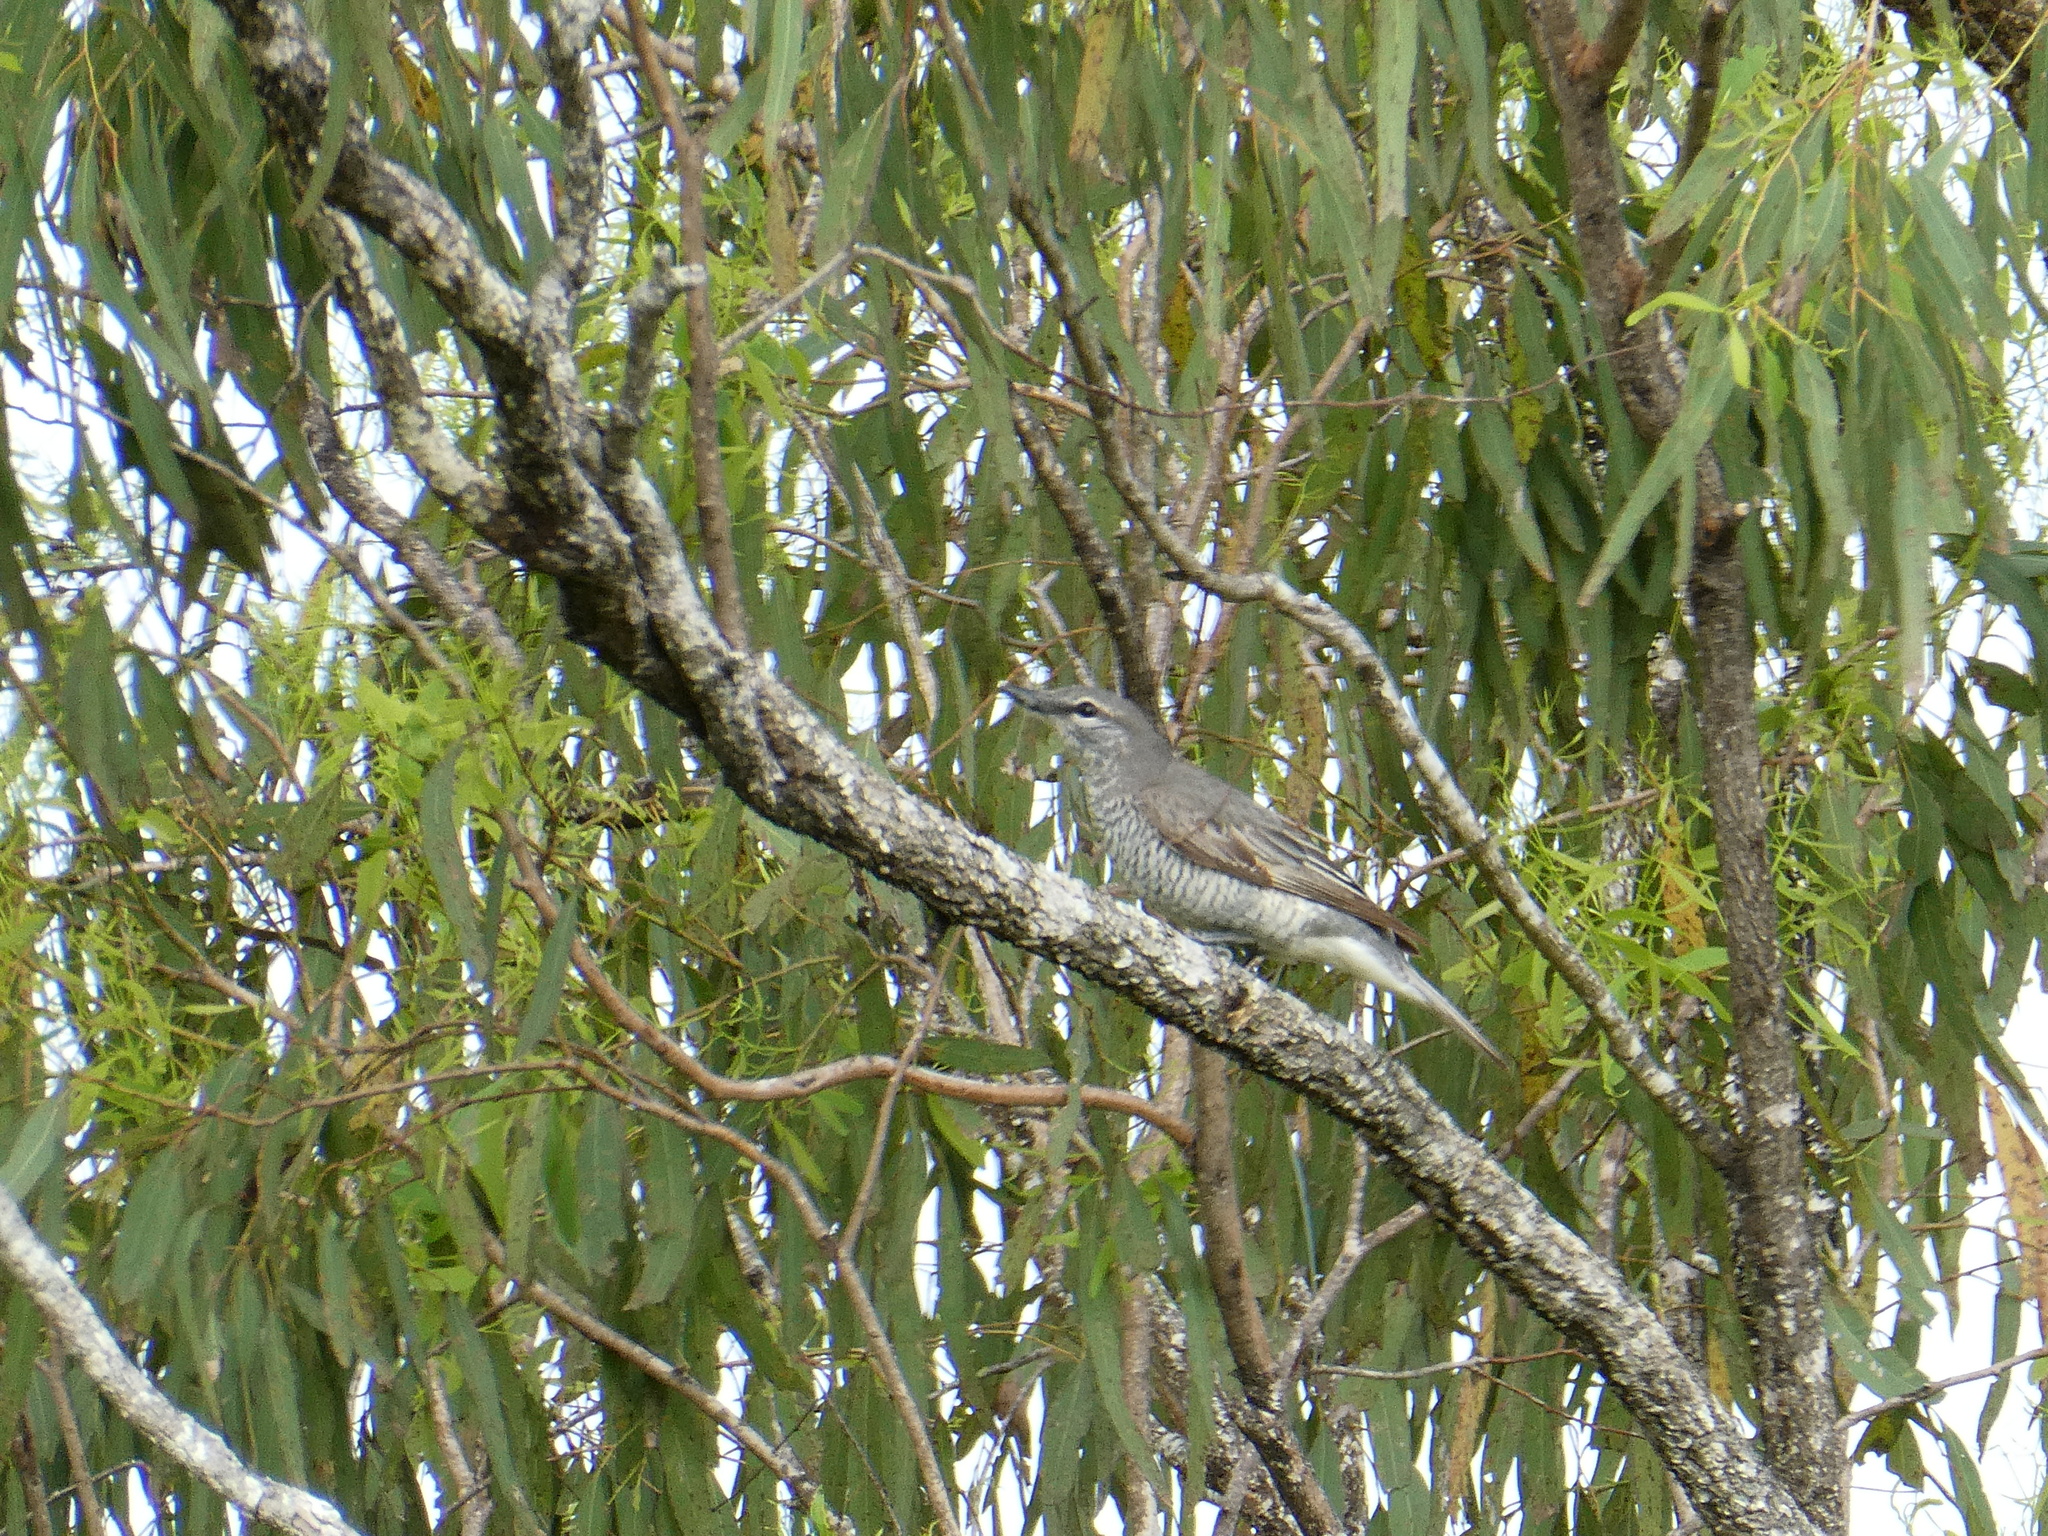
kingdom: Animalia
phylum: Chordata
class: Aves
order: Passeriformes
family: Campephagidae
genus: Edolisoma
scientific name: Edolisoma tenuirostre
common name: Common cicadabird
